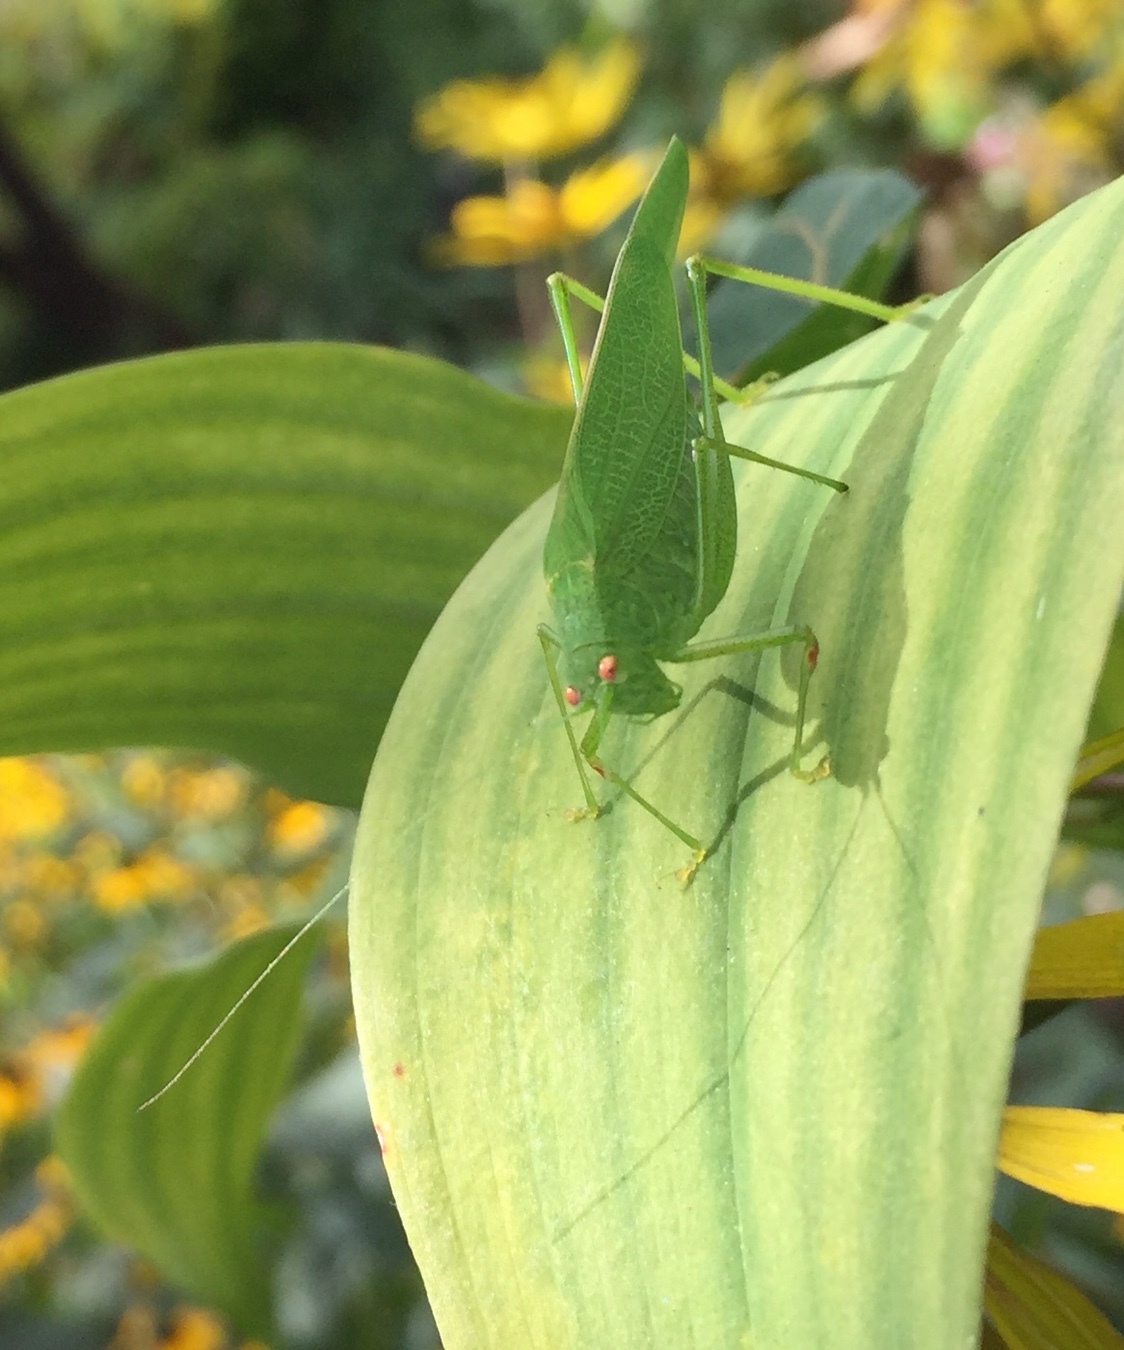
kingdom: Animalia
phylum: Arthropoda
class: Insecta
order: Orthoptera
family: Tettigoniidae
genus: Phaneroptera
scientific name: Phaneroptera nana
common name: Southern sickle bush-cricket
